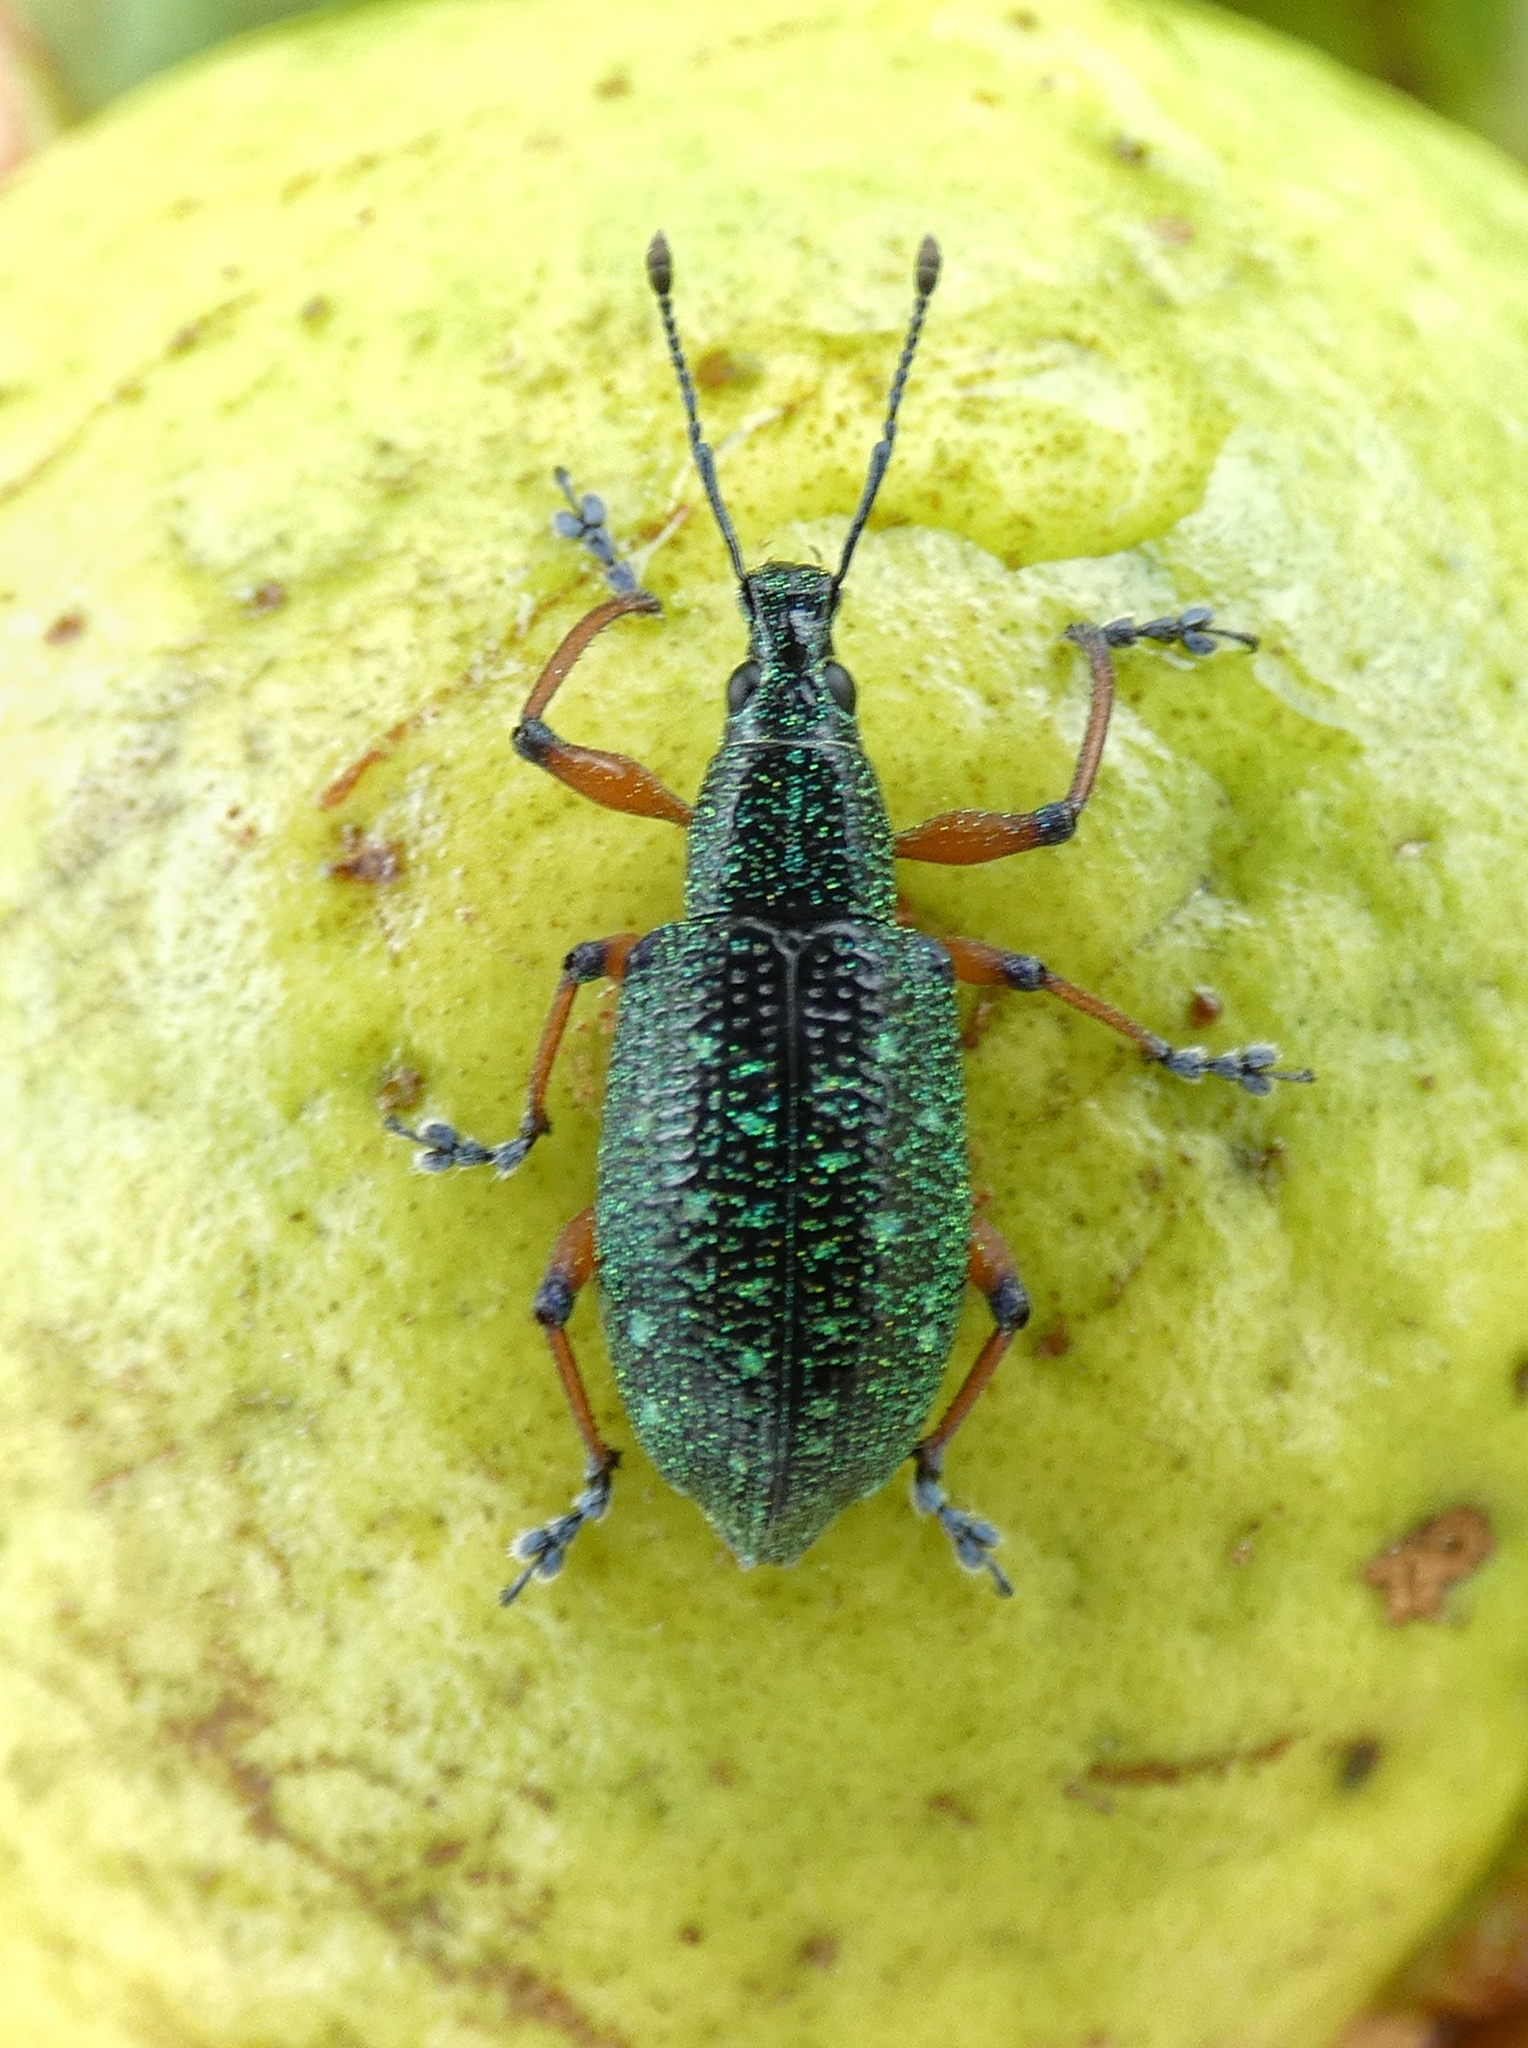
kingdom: Animalia
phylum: Arthropoda
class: Insecta
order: Coleoptera
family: Curculionidae
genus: Exophthalmus
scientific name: Exophthalmus jekelianus
